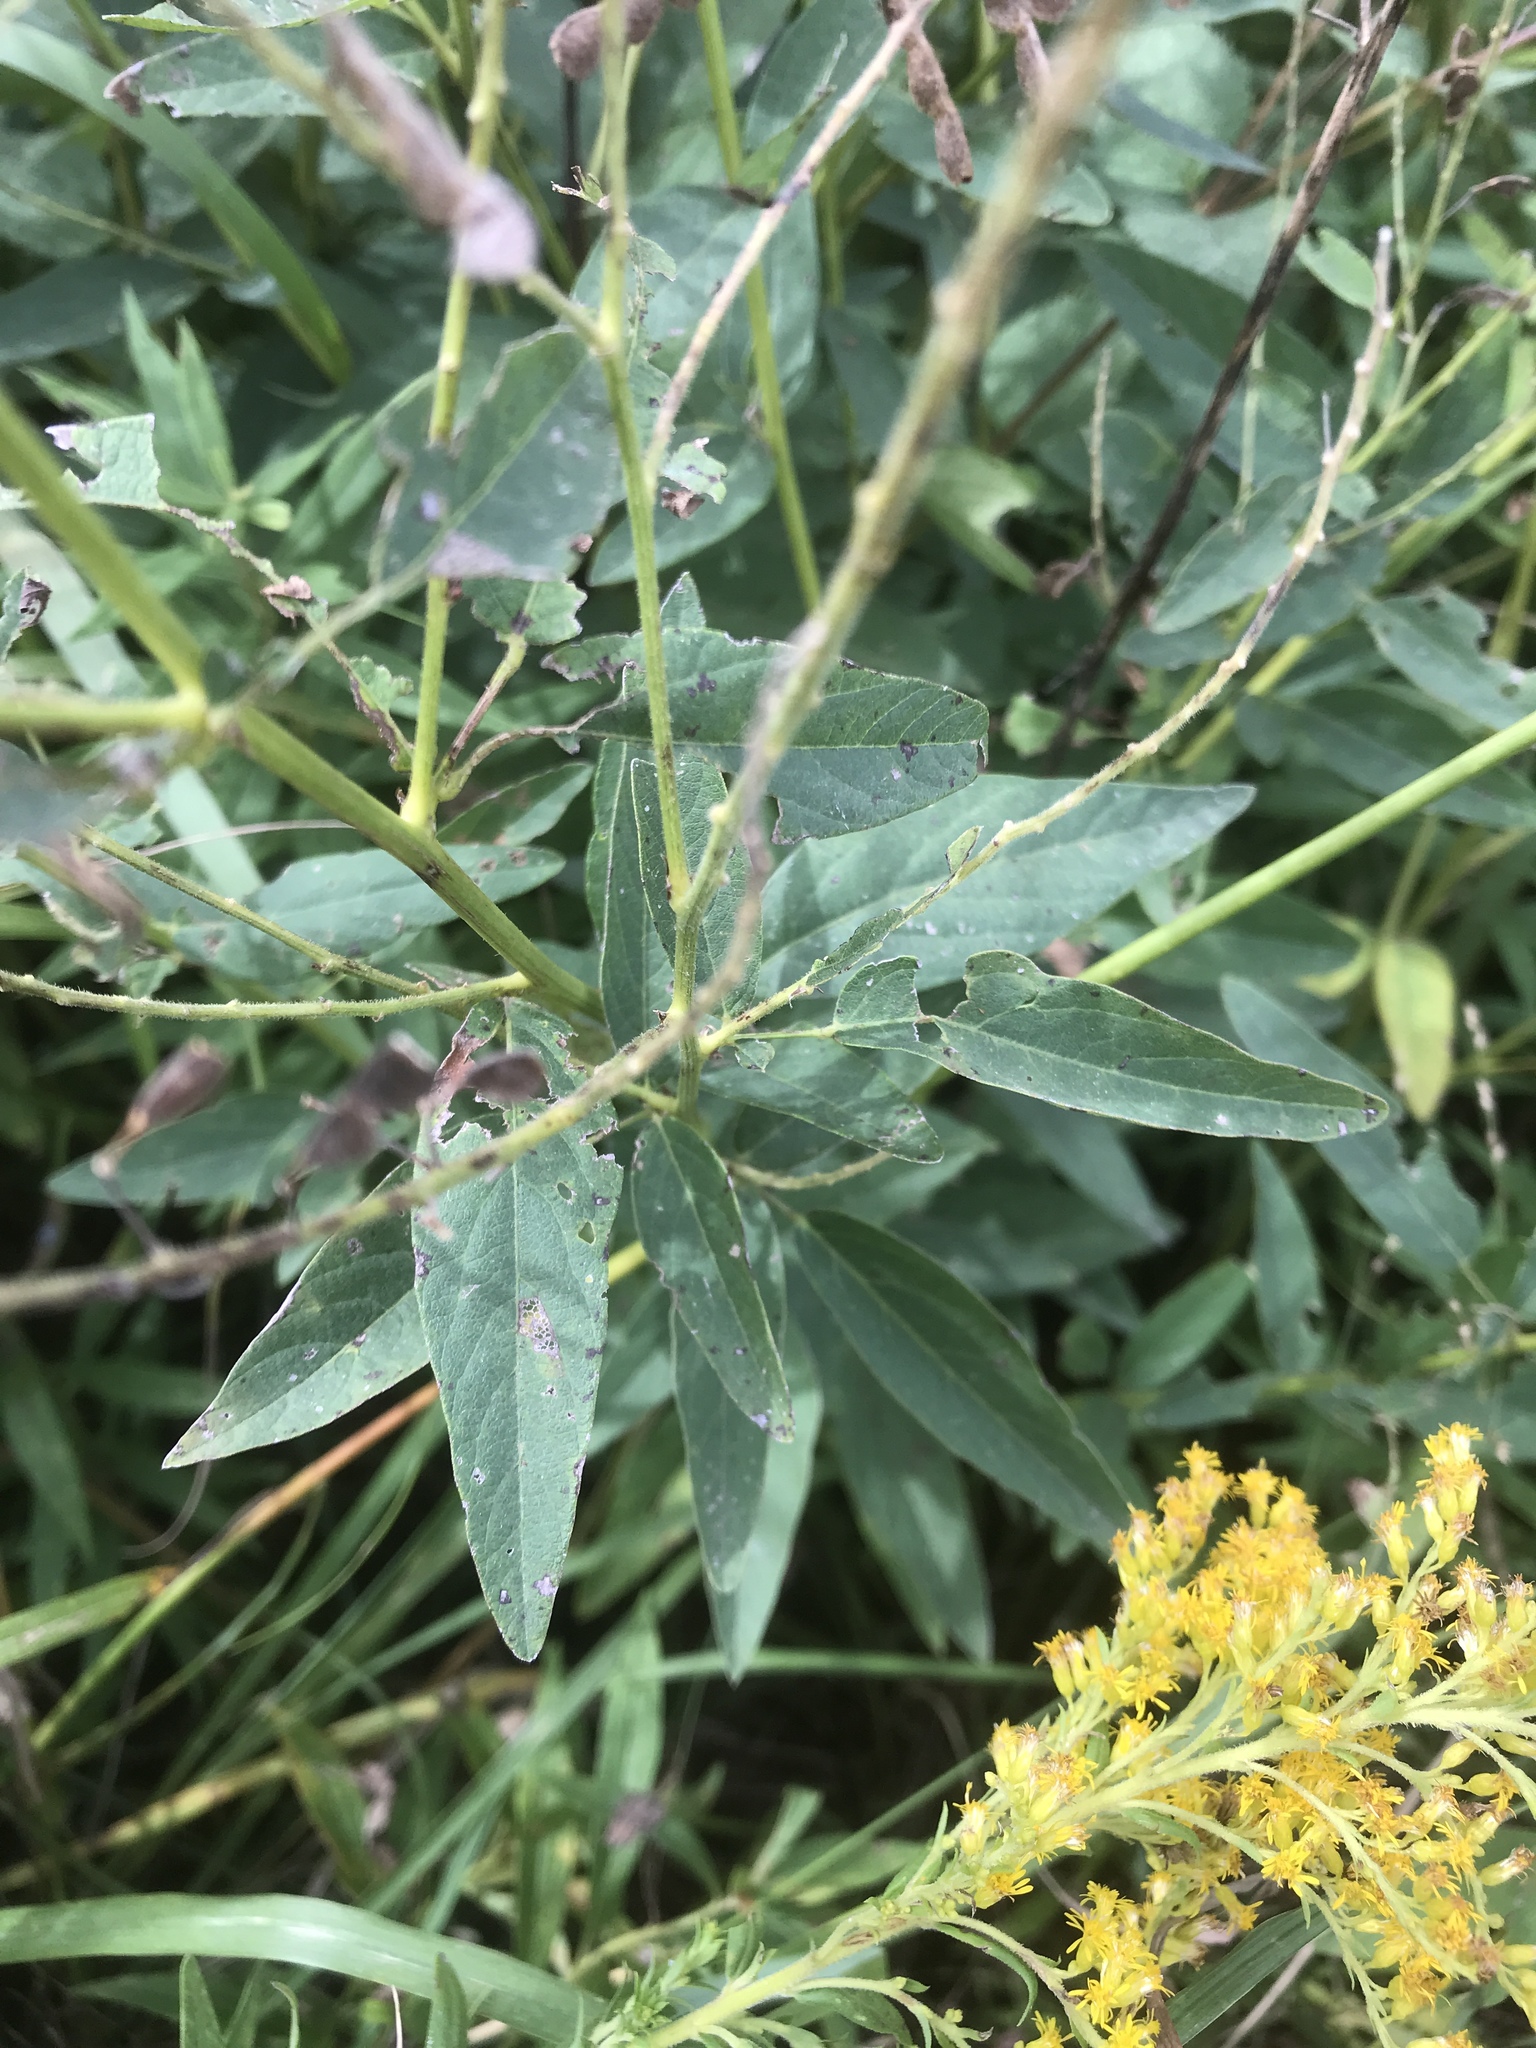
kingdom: Plantae
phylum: Tracheophyta
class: Magnoliopsida
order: Fabales
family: Fabaceae
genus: Desmodium
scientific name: Desmodium canadense
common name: Canada tick-trefoil
